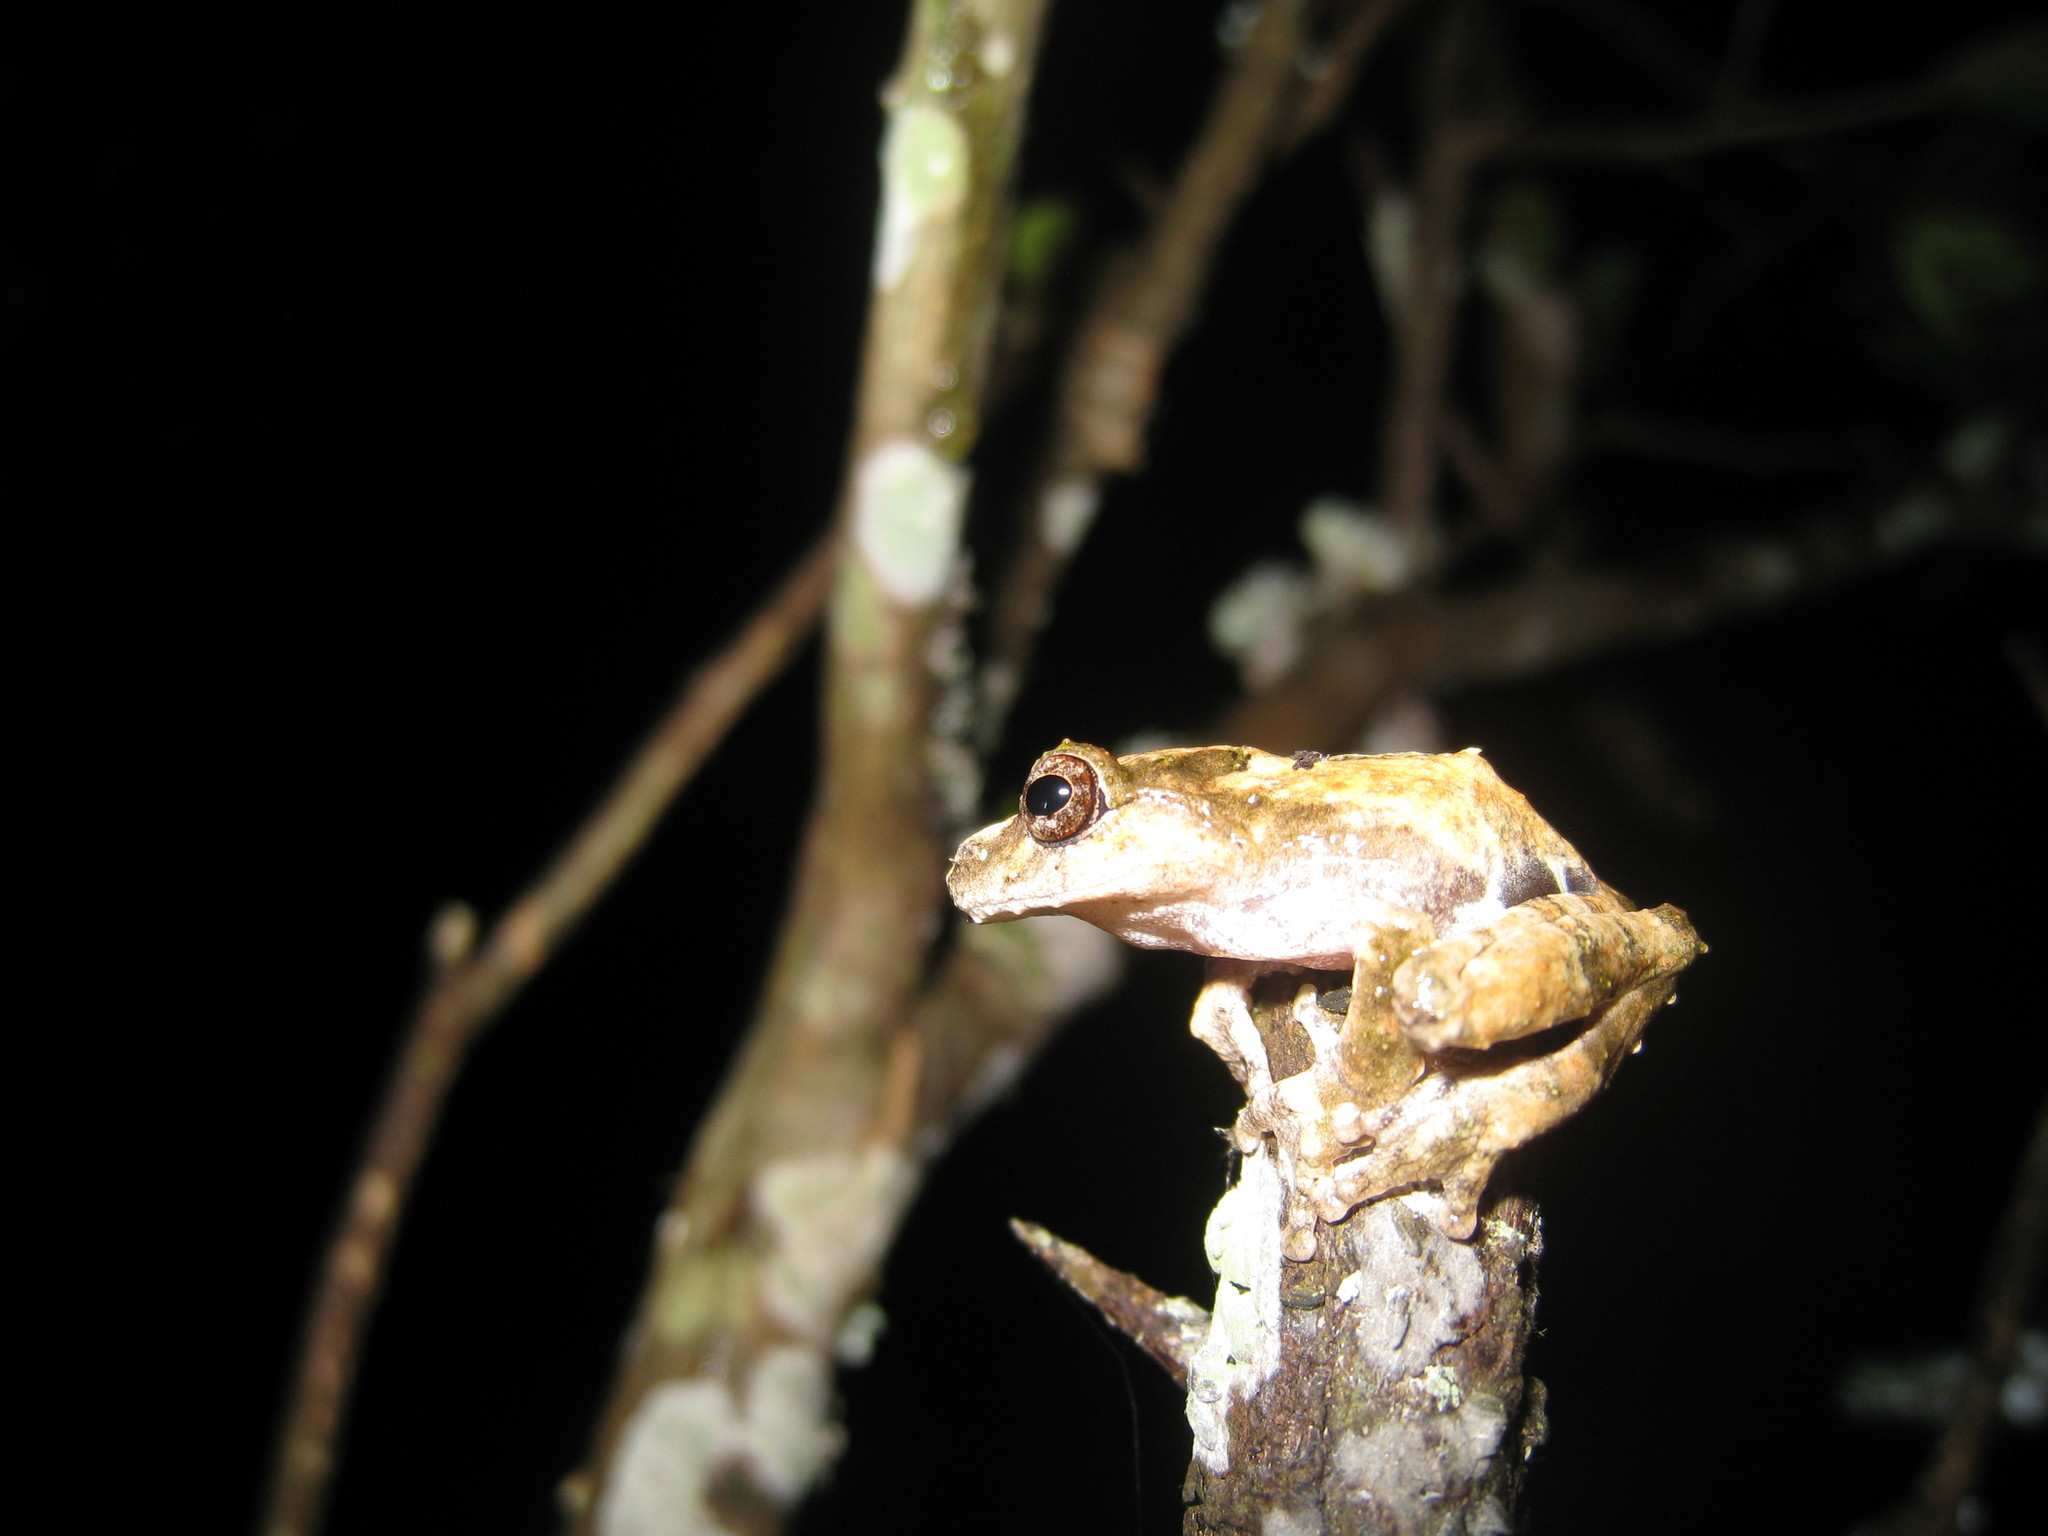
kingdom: Animalia
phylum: Chordata
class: Amphibia
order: Anura
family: Rhacophoridae
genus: Raorchestes
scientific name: Raorchestes keirasabinae
